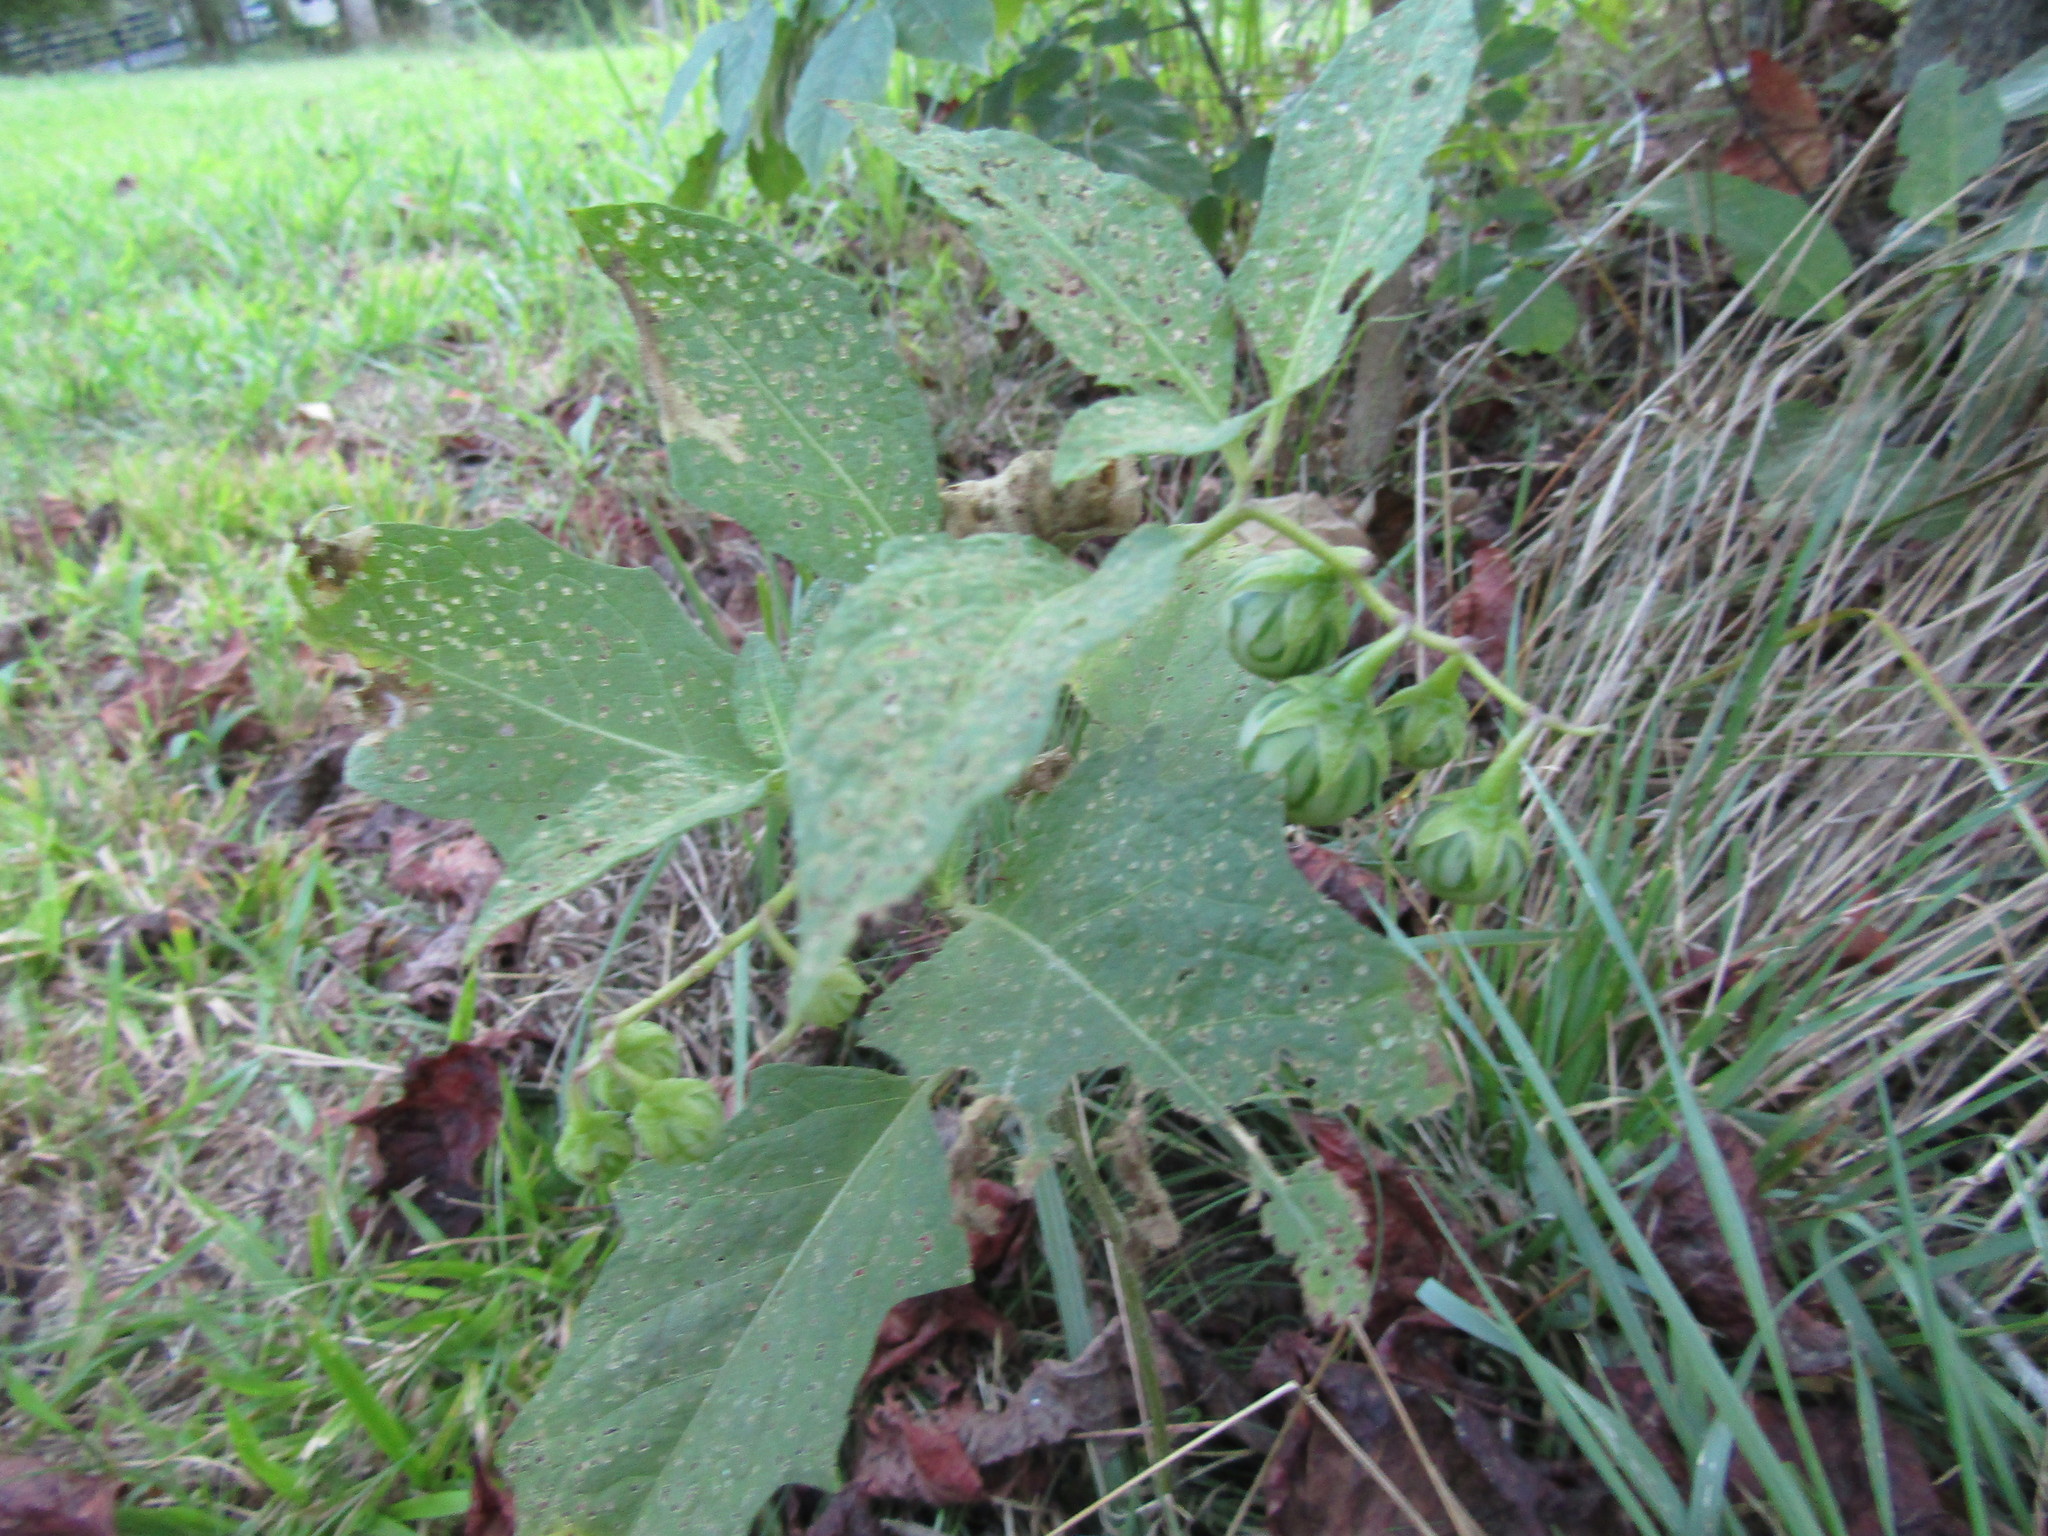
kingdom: Plantae
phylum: Tracheophyta
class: Magnoliopsida
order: Solanales
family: Solanaceae
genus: Solanum
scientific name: Solanum carolinense
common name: Horse-nettle
